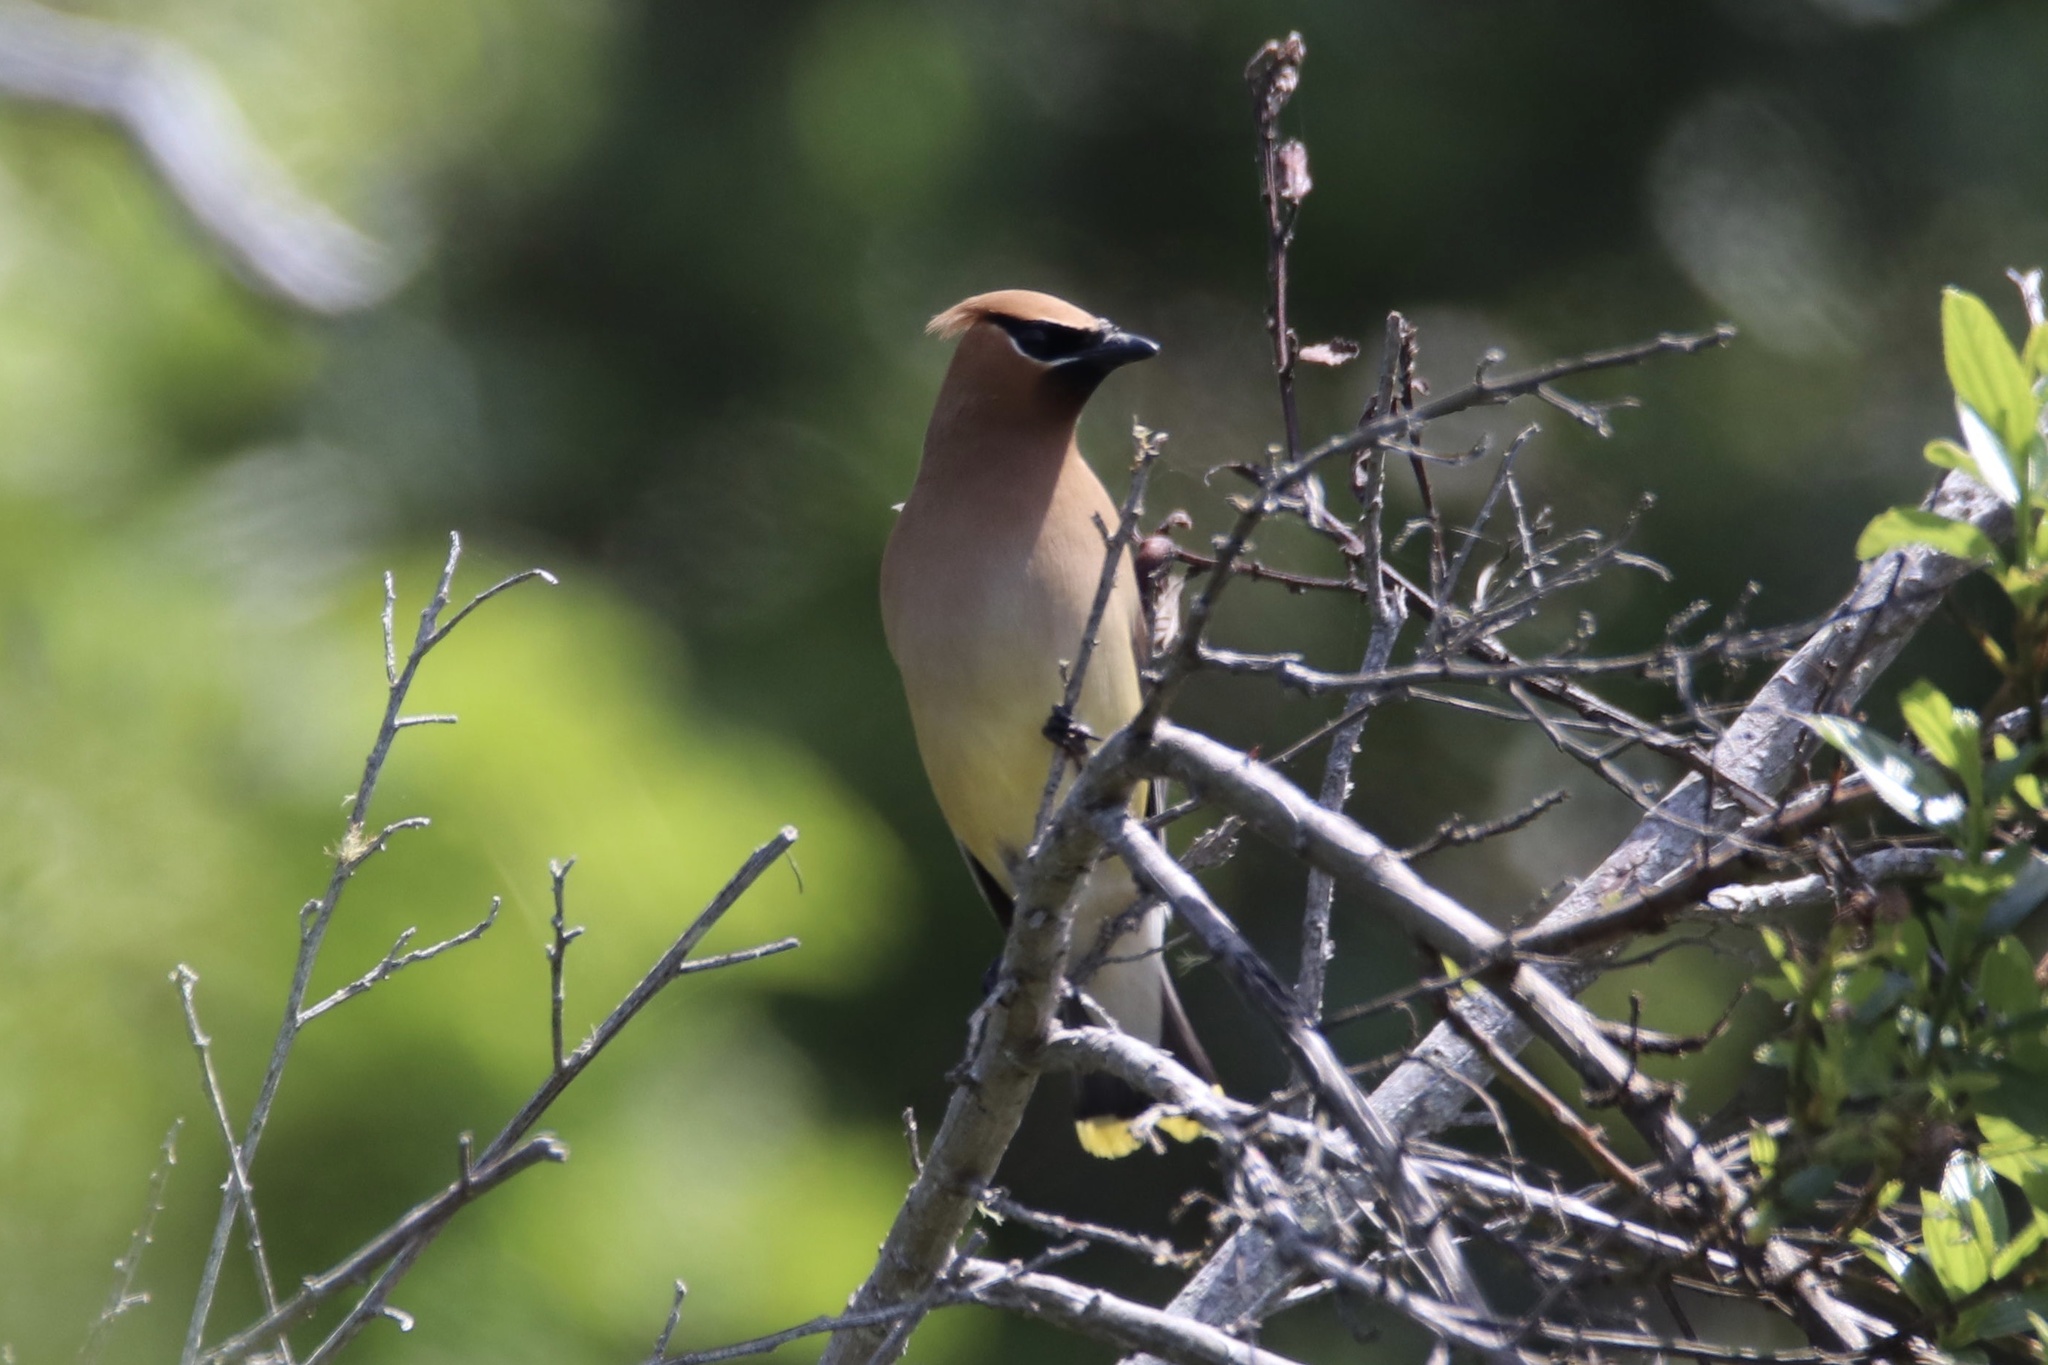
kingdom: Animalia
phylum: Chordata
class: Aves
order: Passeriformes
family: Bombycillidae
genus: Bombycilla
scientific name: Bombycilla cedrorum
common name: Cedar waxwing
